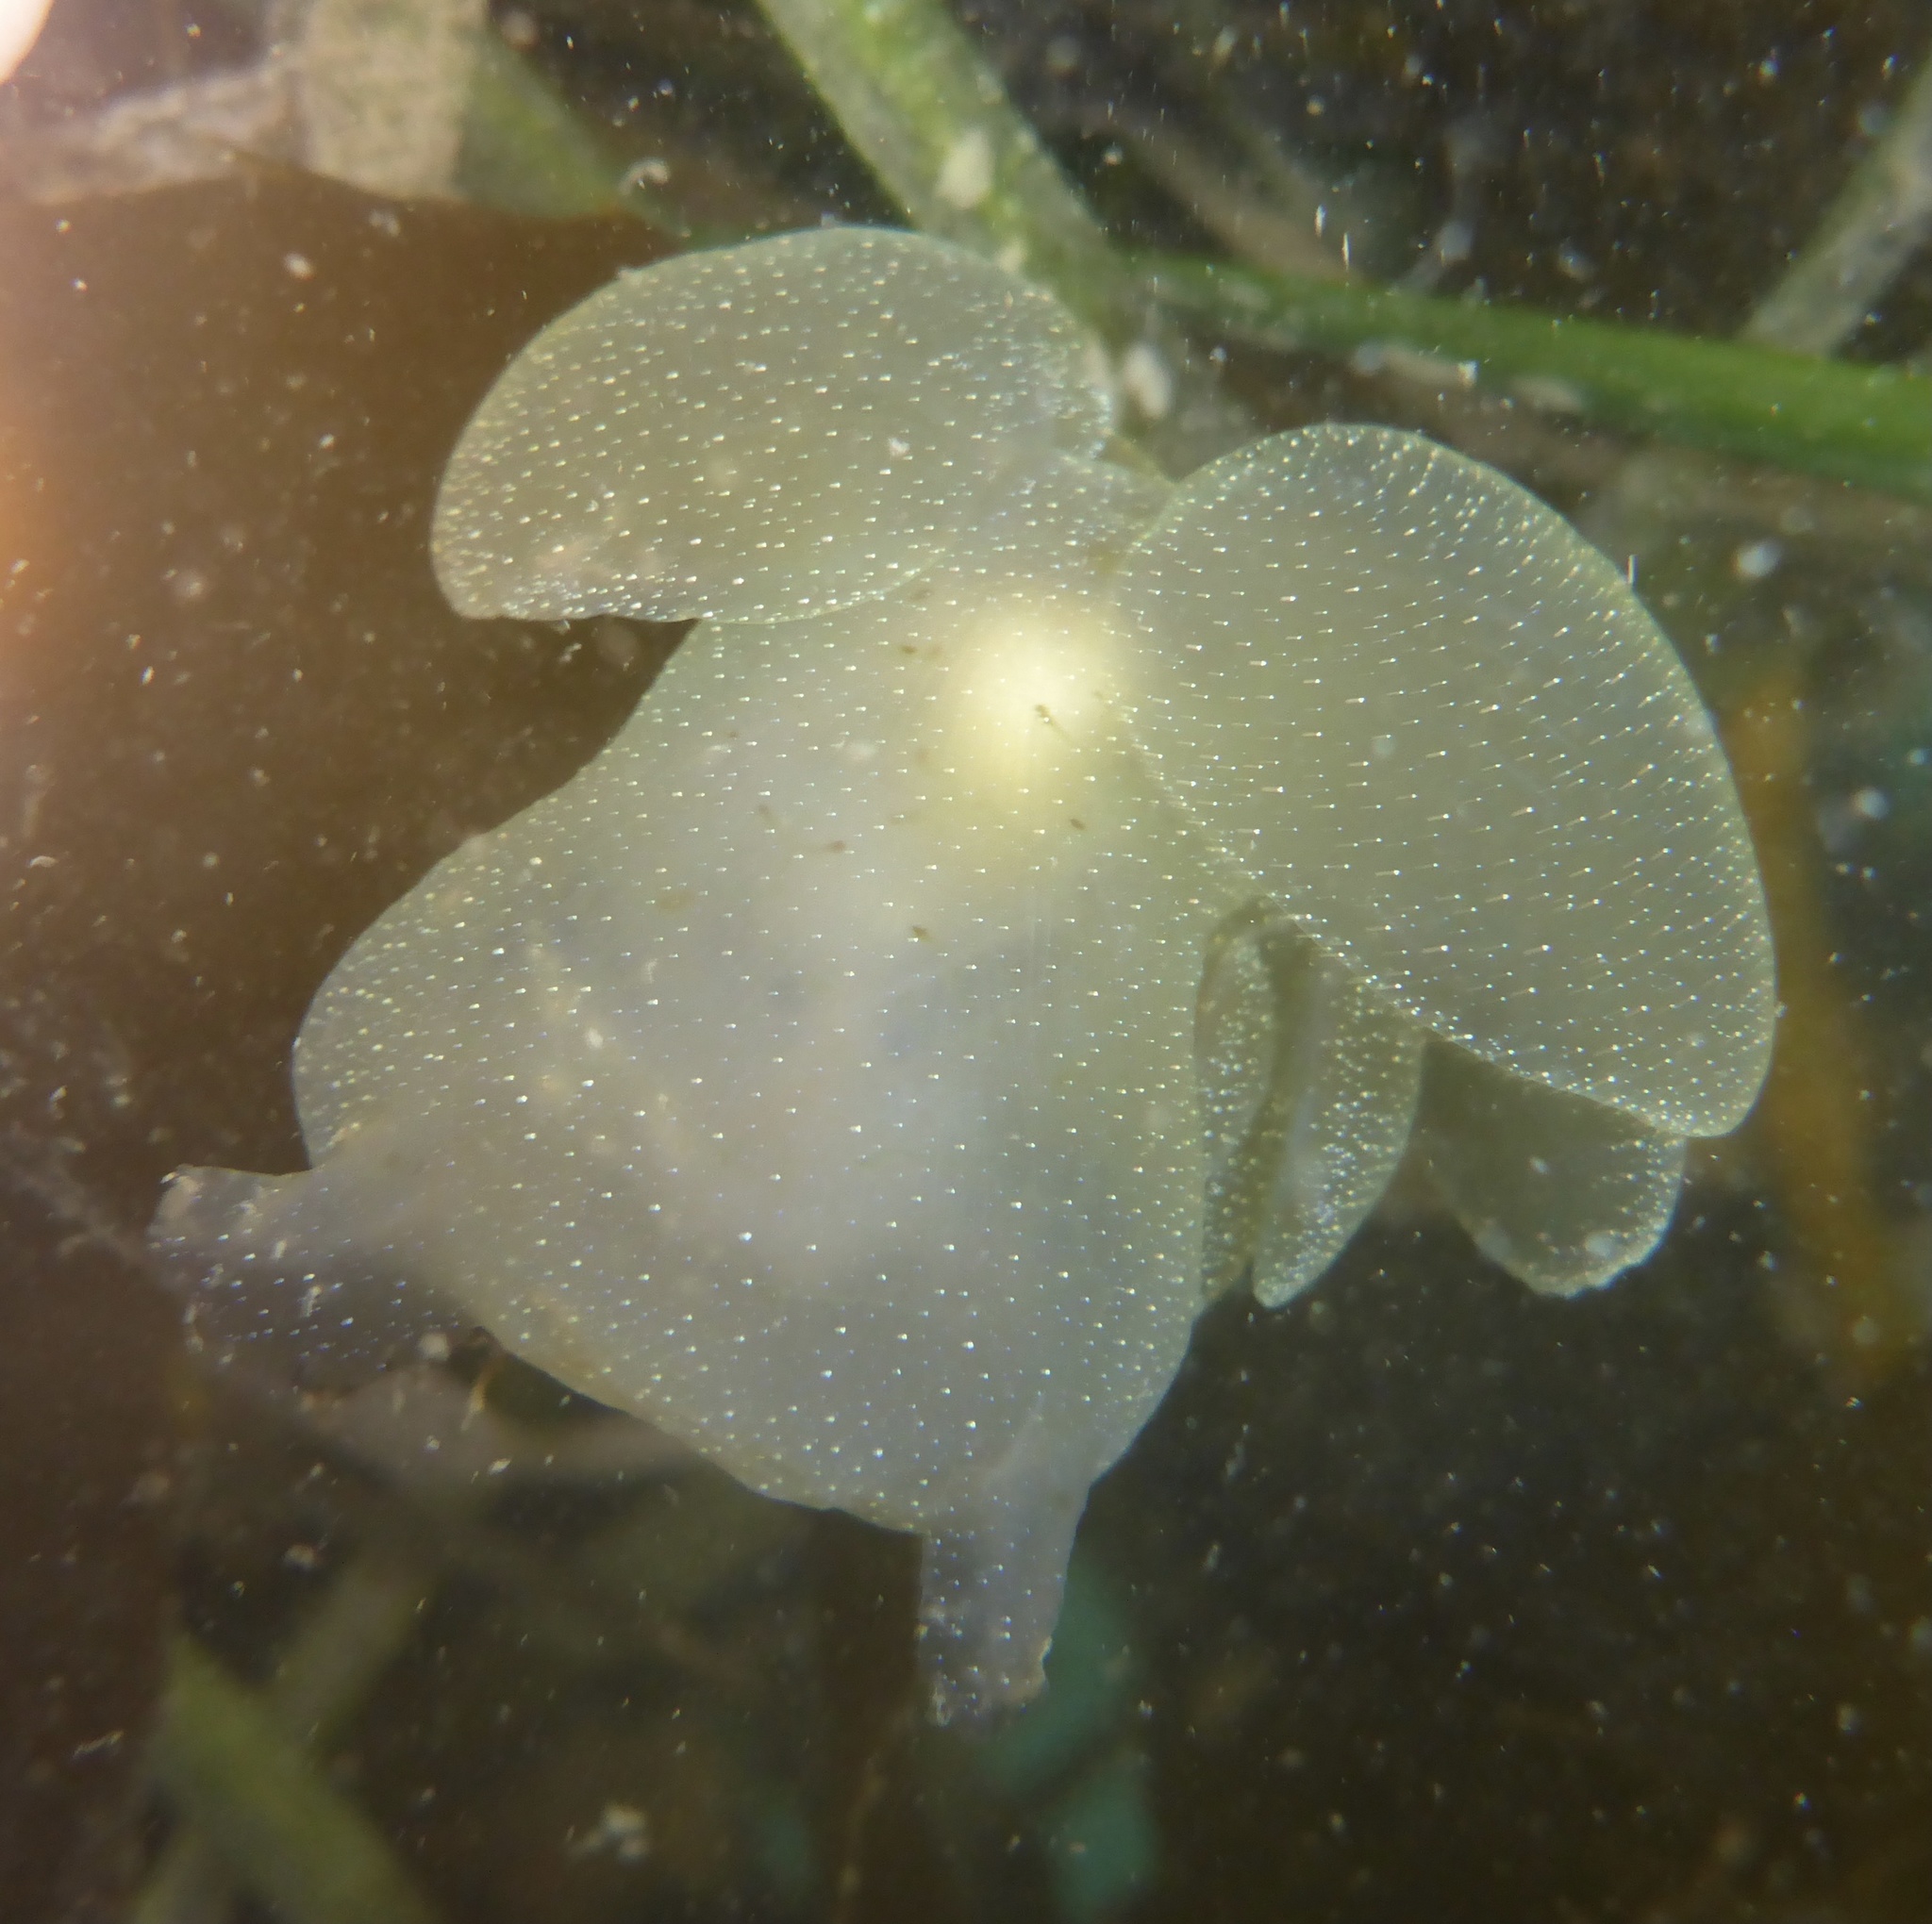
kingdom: Animalia
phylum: Mollusca
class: Gastropoda
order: Nudibranchia
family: Tethydidae
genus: Melibe
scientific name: Melibe leonina
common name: Lion nudibranch
